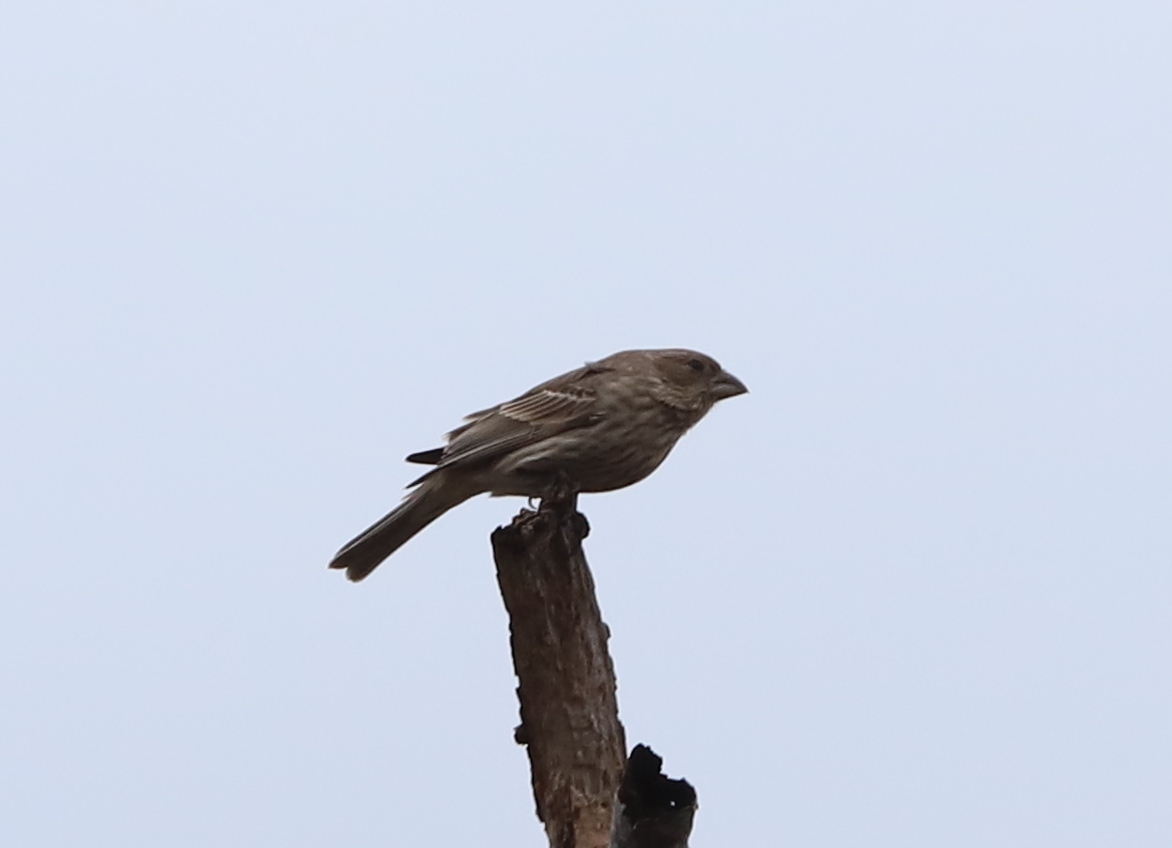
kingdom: Animalia
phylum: Chordata
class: Aves
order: Passeriformes
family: Fringillidae
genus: Haemorhous
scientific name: Haemorhous mexicanus
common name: House finch
